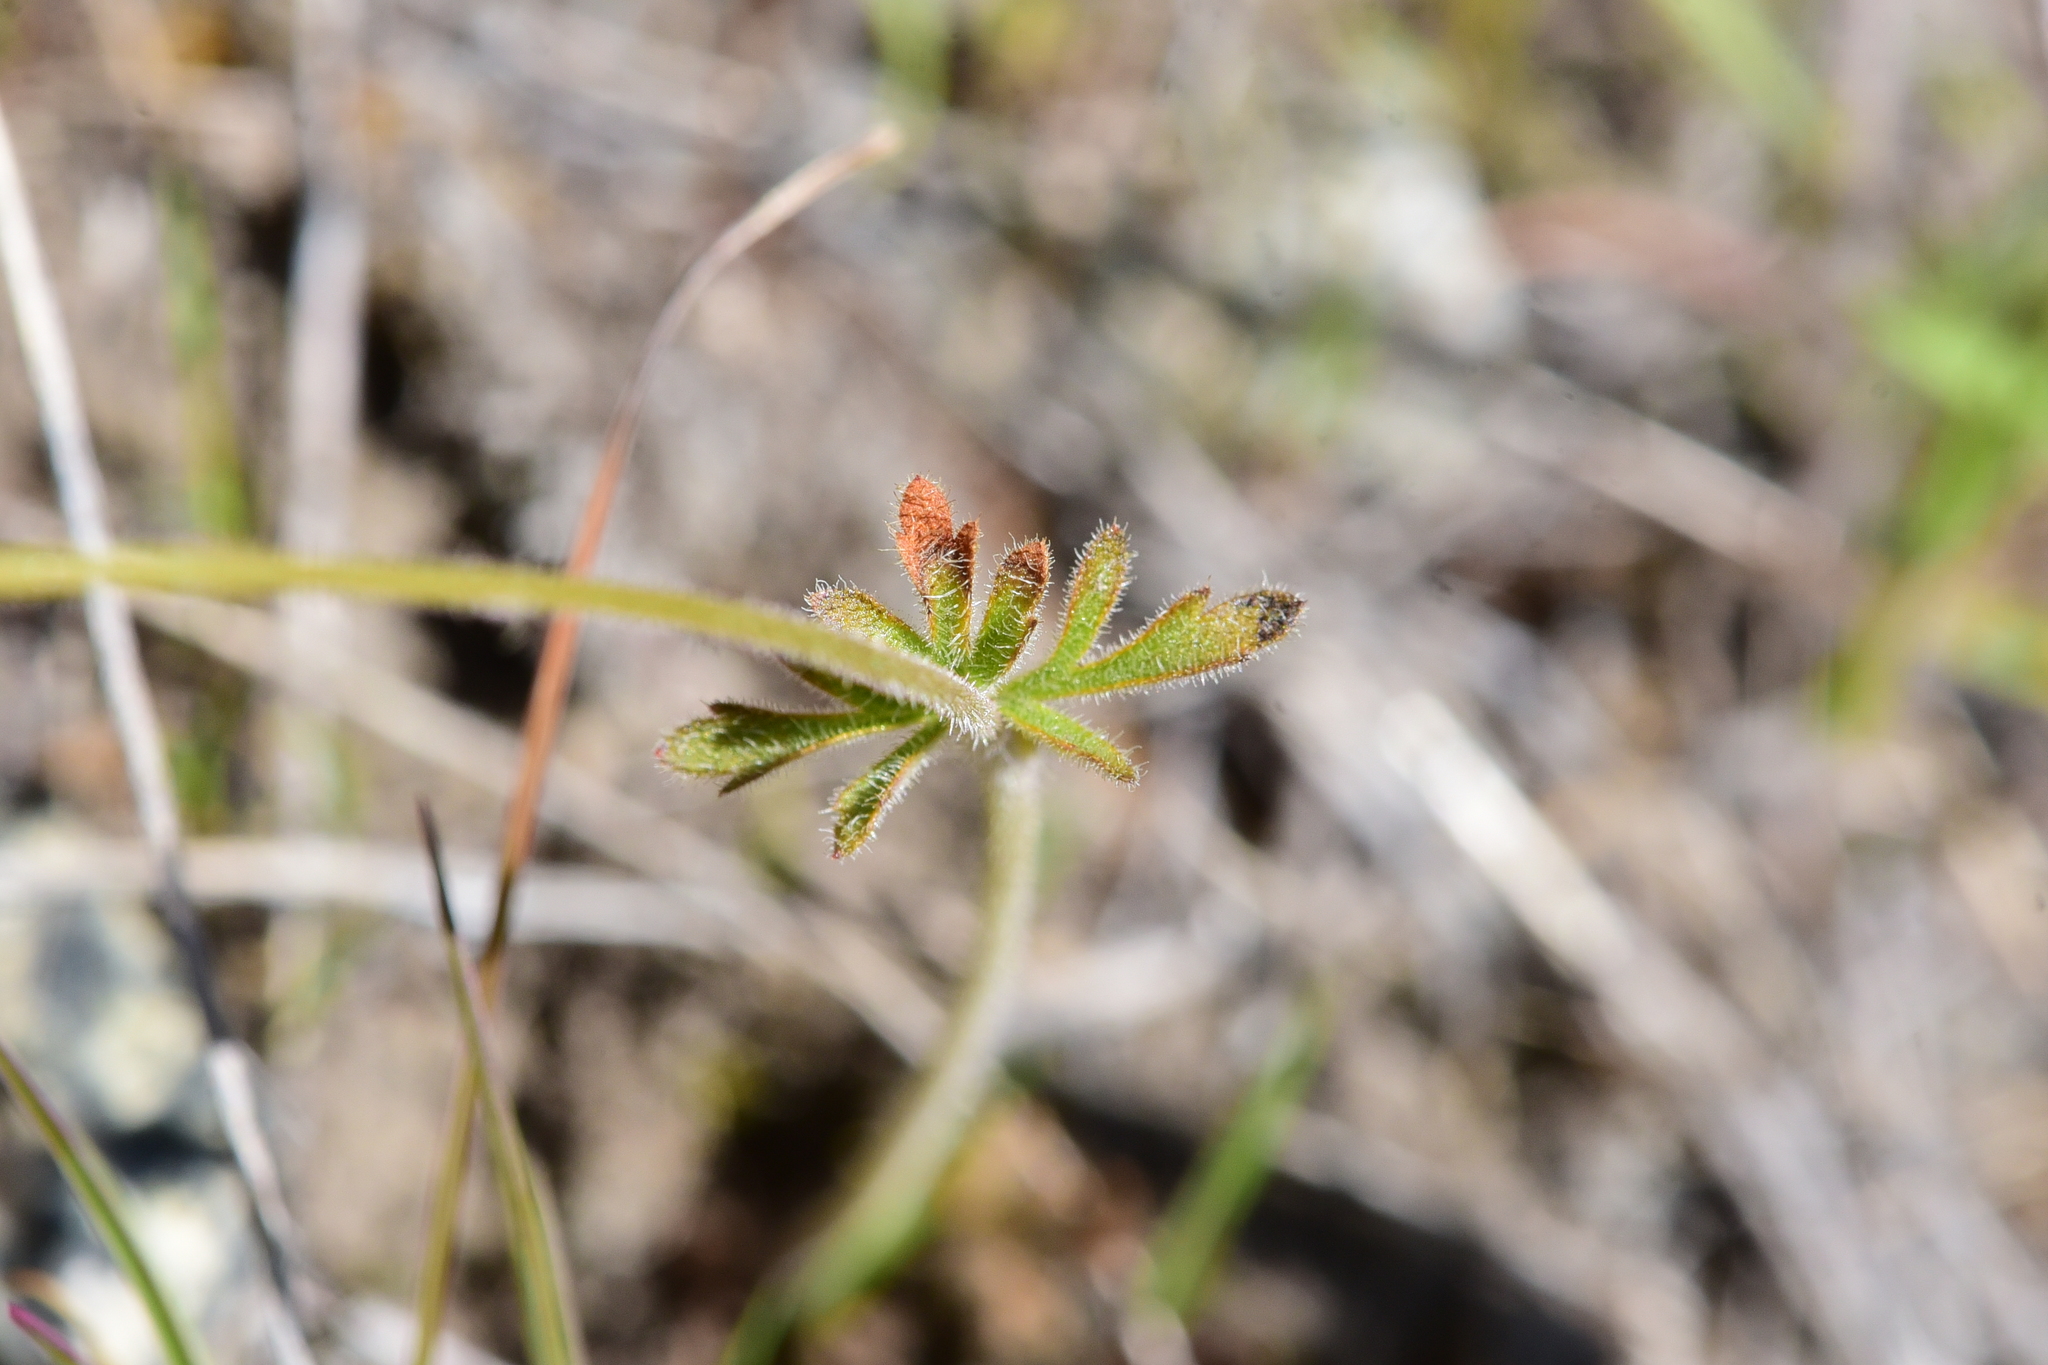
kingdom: Plantae
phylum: Tracheophyta
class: Magnoliopsida
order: Saxifragales
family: Saxifragaceae
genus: Lithophragma
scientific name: Lithophragma parviflorum
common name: Small-flowered fringe-cup
